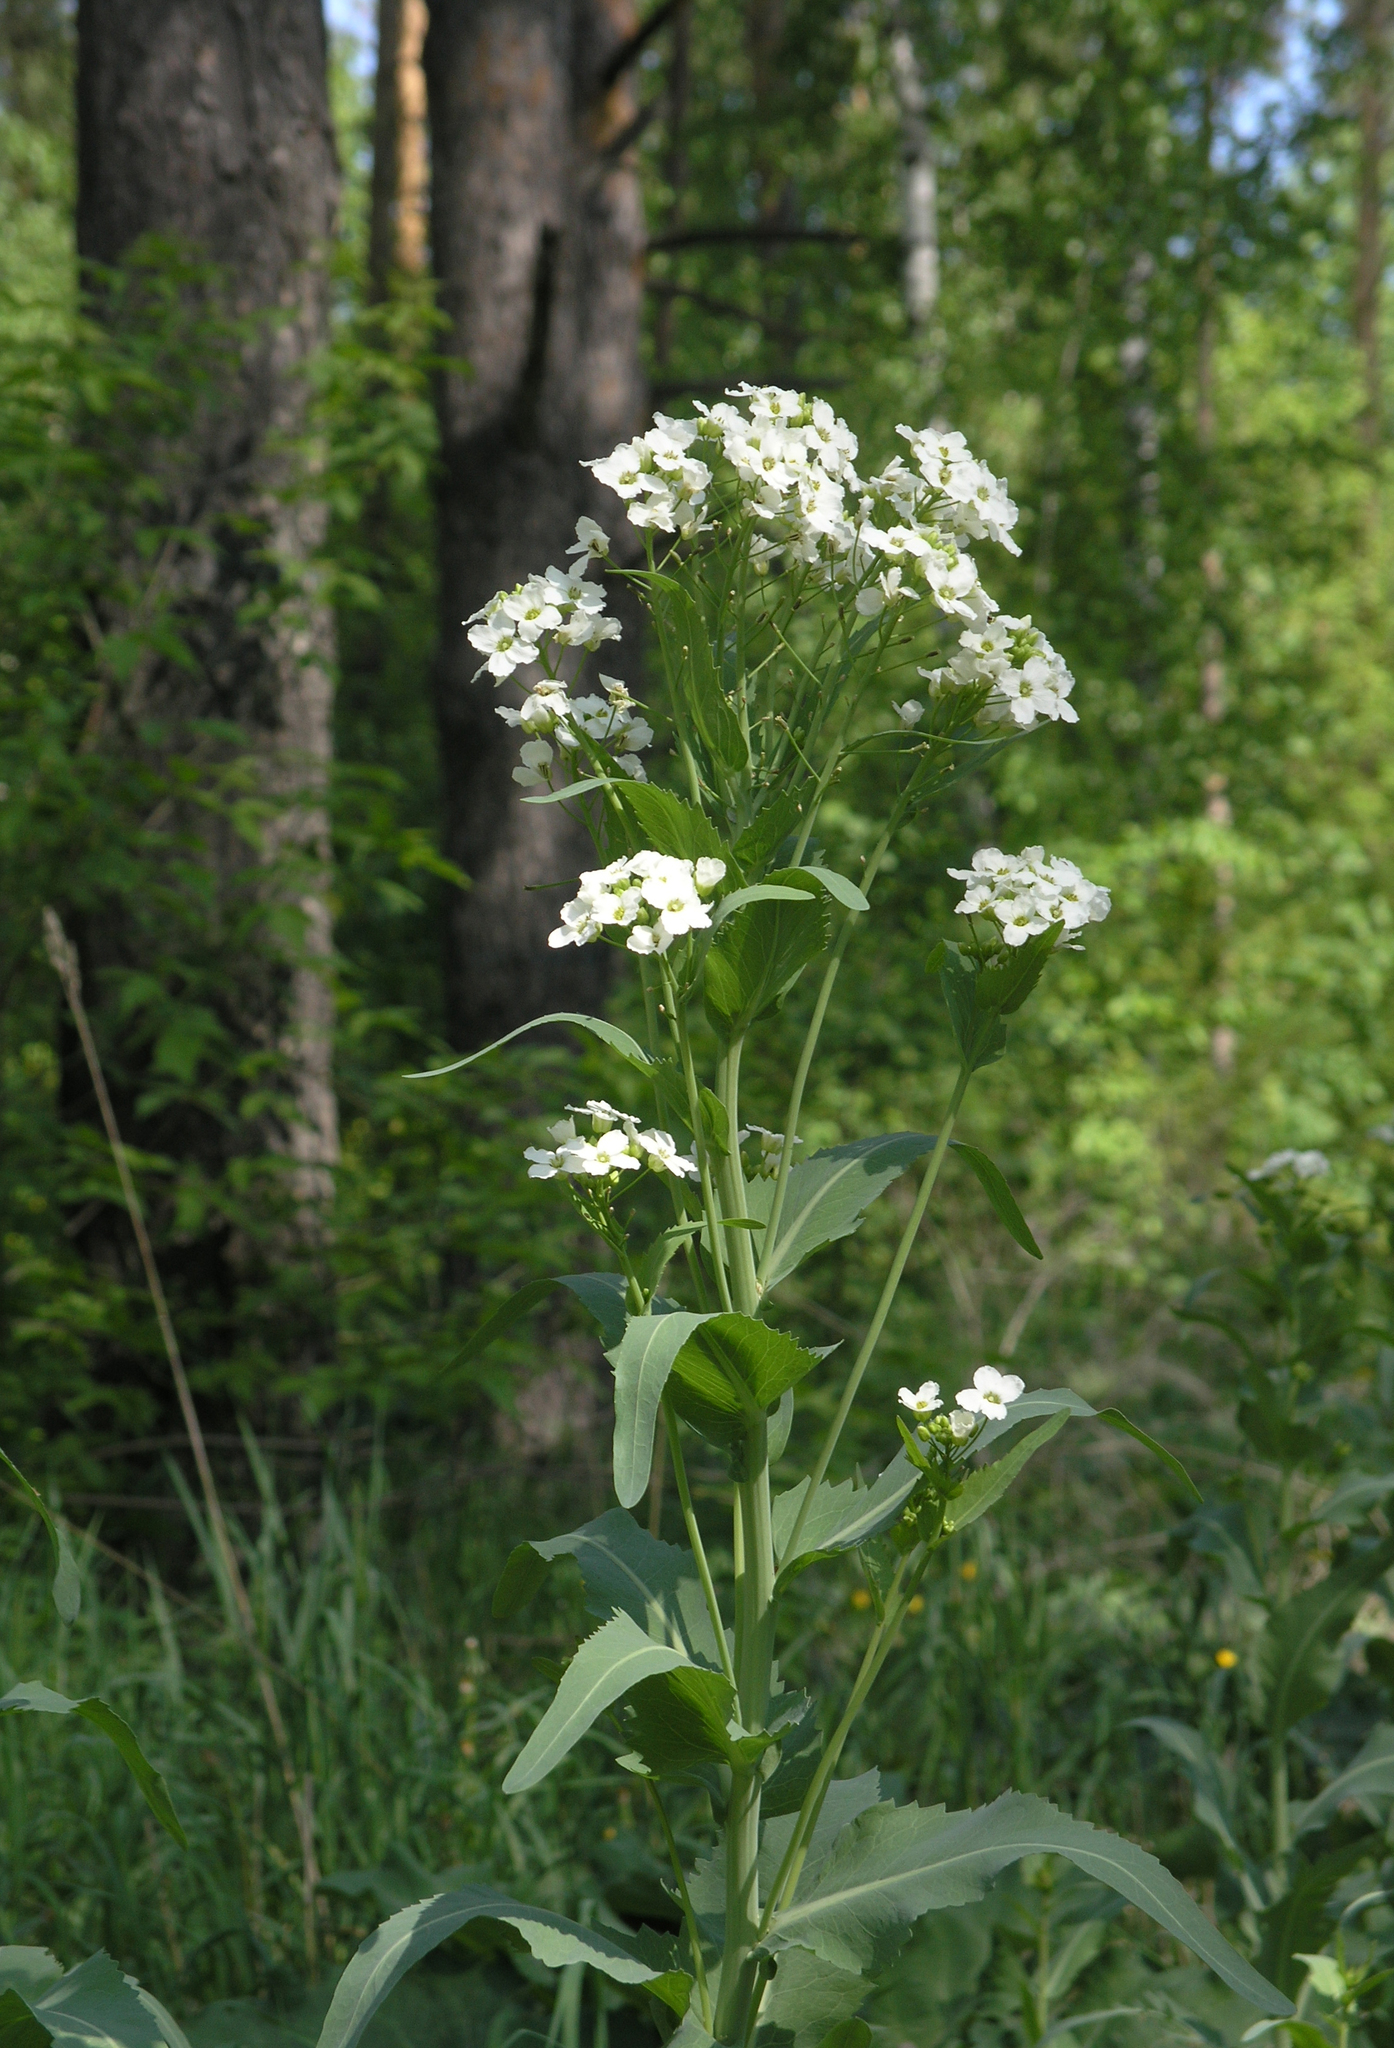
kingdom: Plantae
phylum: Tracheophyta
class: Magnoliopsida
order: Brassicales
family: Brassicaceae
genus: Armoracia
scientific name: Armoracia rusticana
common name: Horseradish
